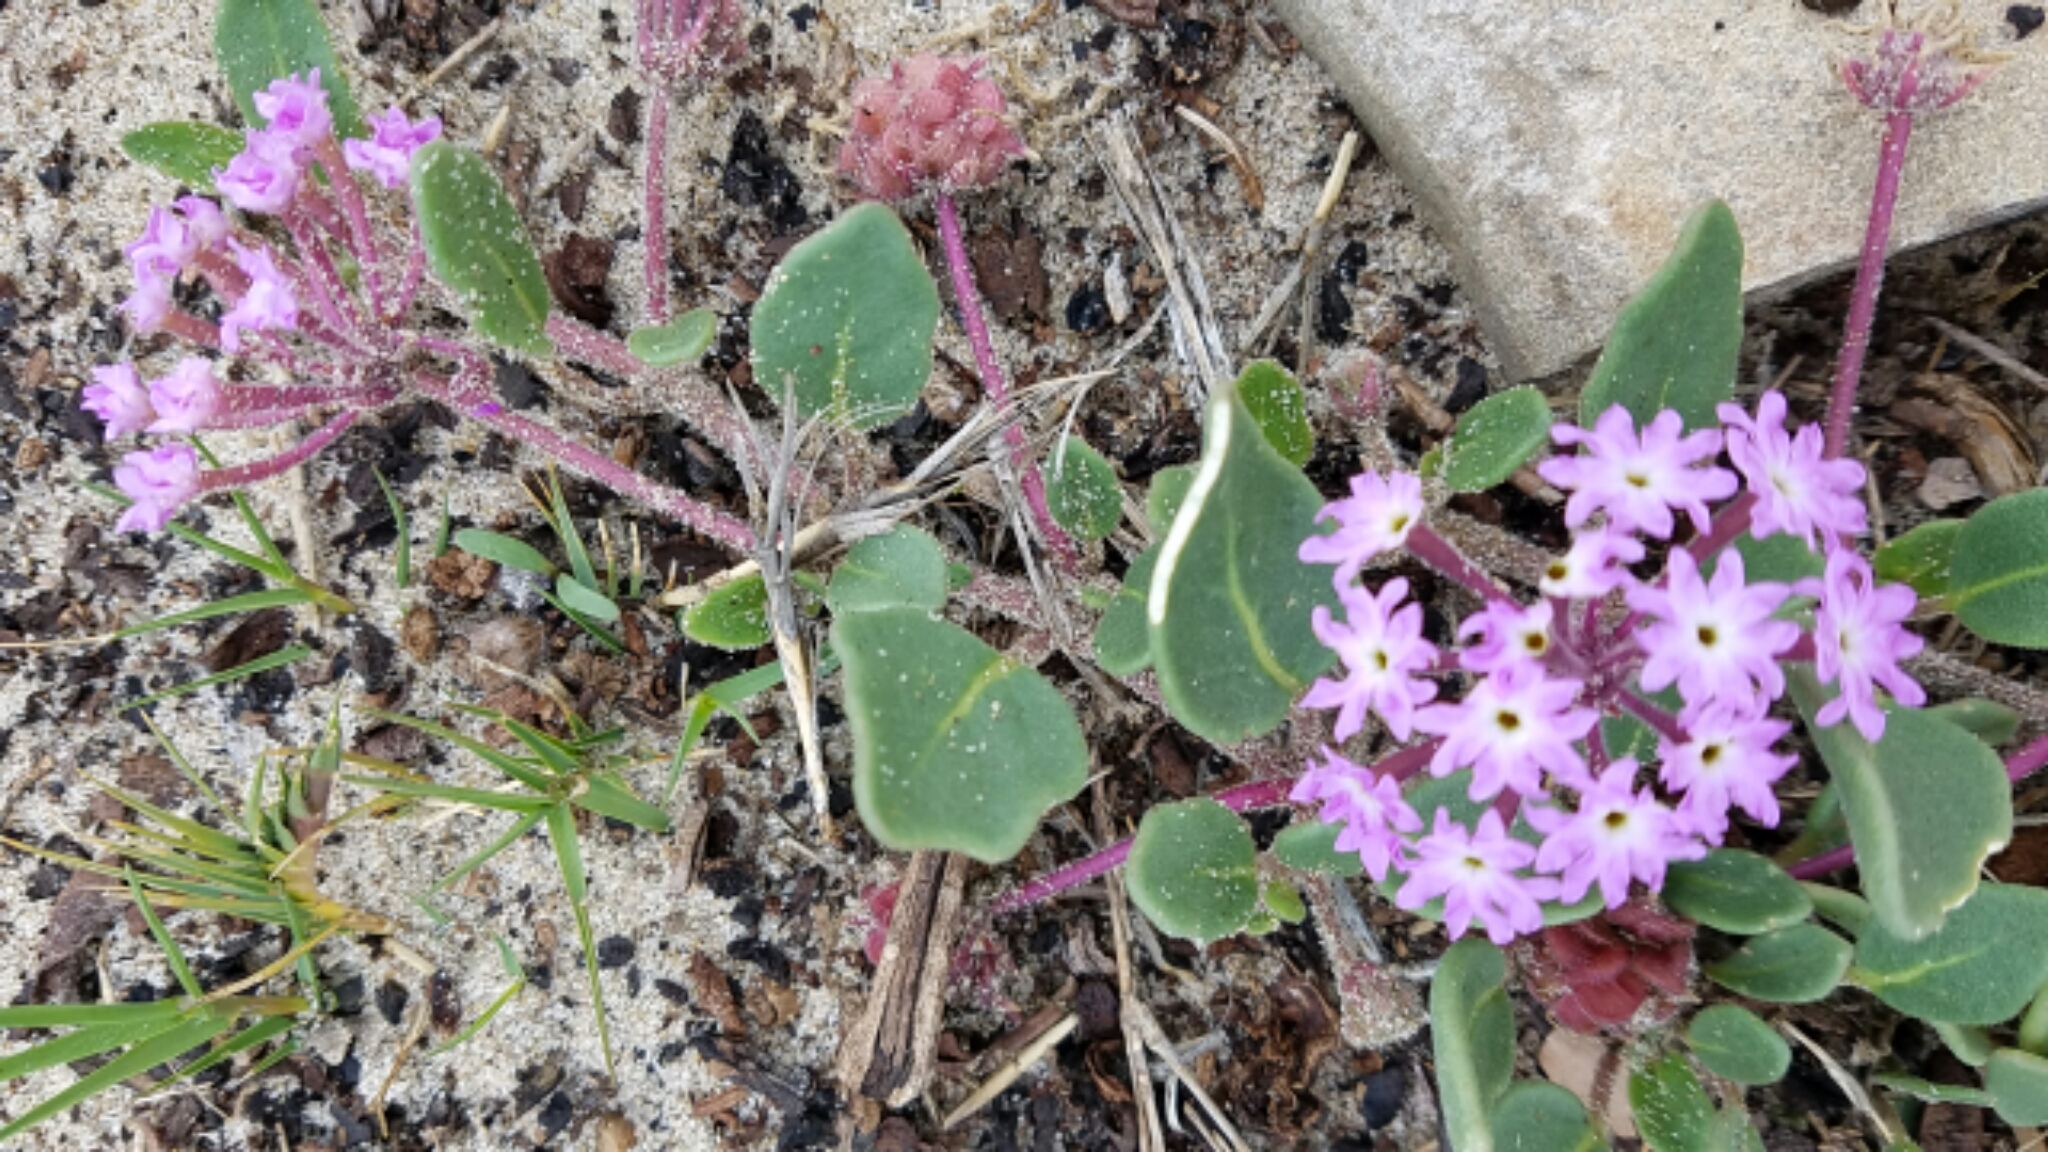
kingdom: Plantae
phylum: Tracheophyta
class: Magnoliopsida
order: Caryophyllales
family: Nyctaginaceae
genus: Abronia
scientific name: Abronia umbellata
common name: Sand-verbena
